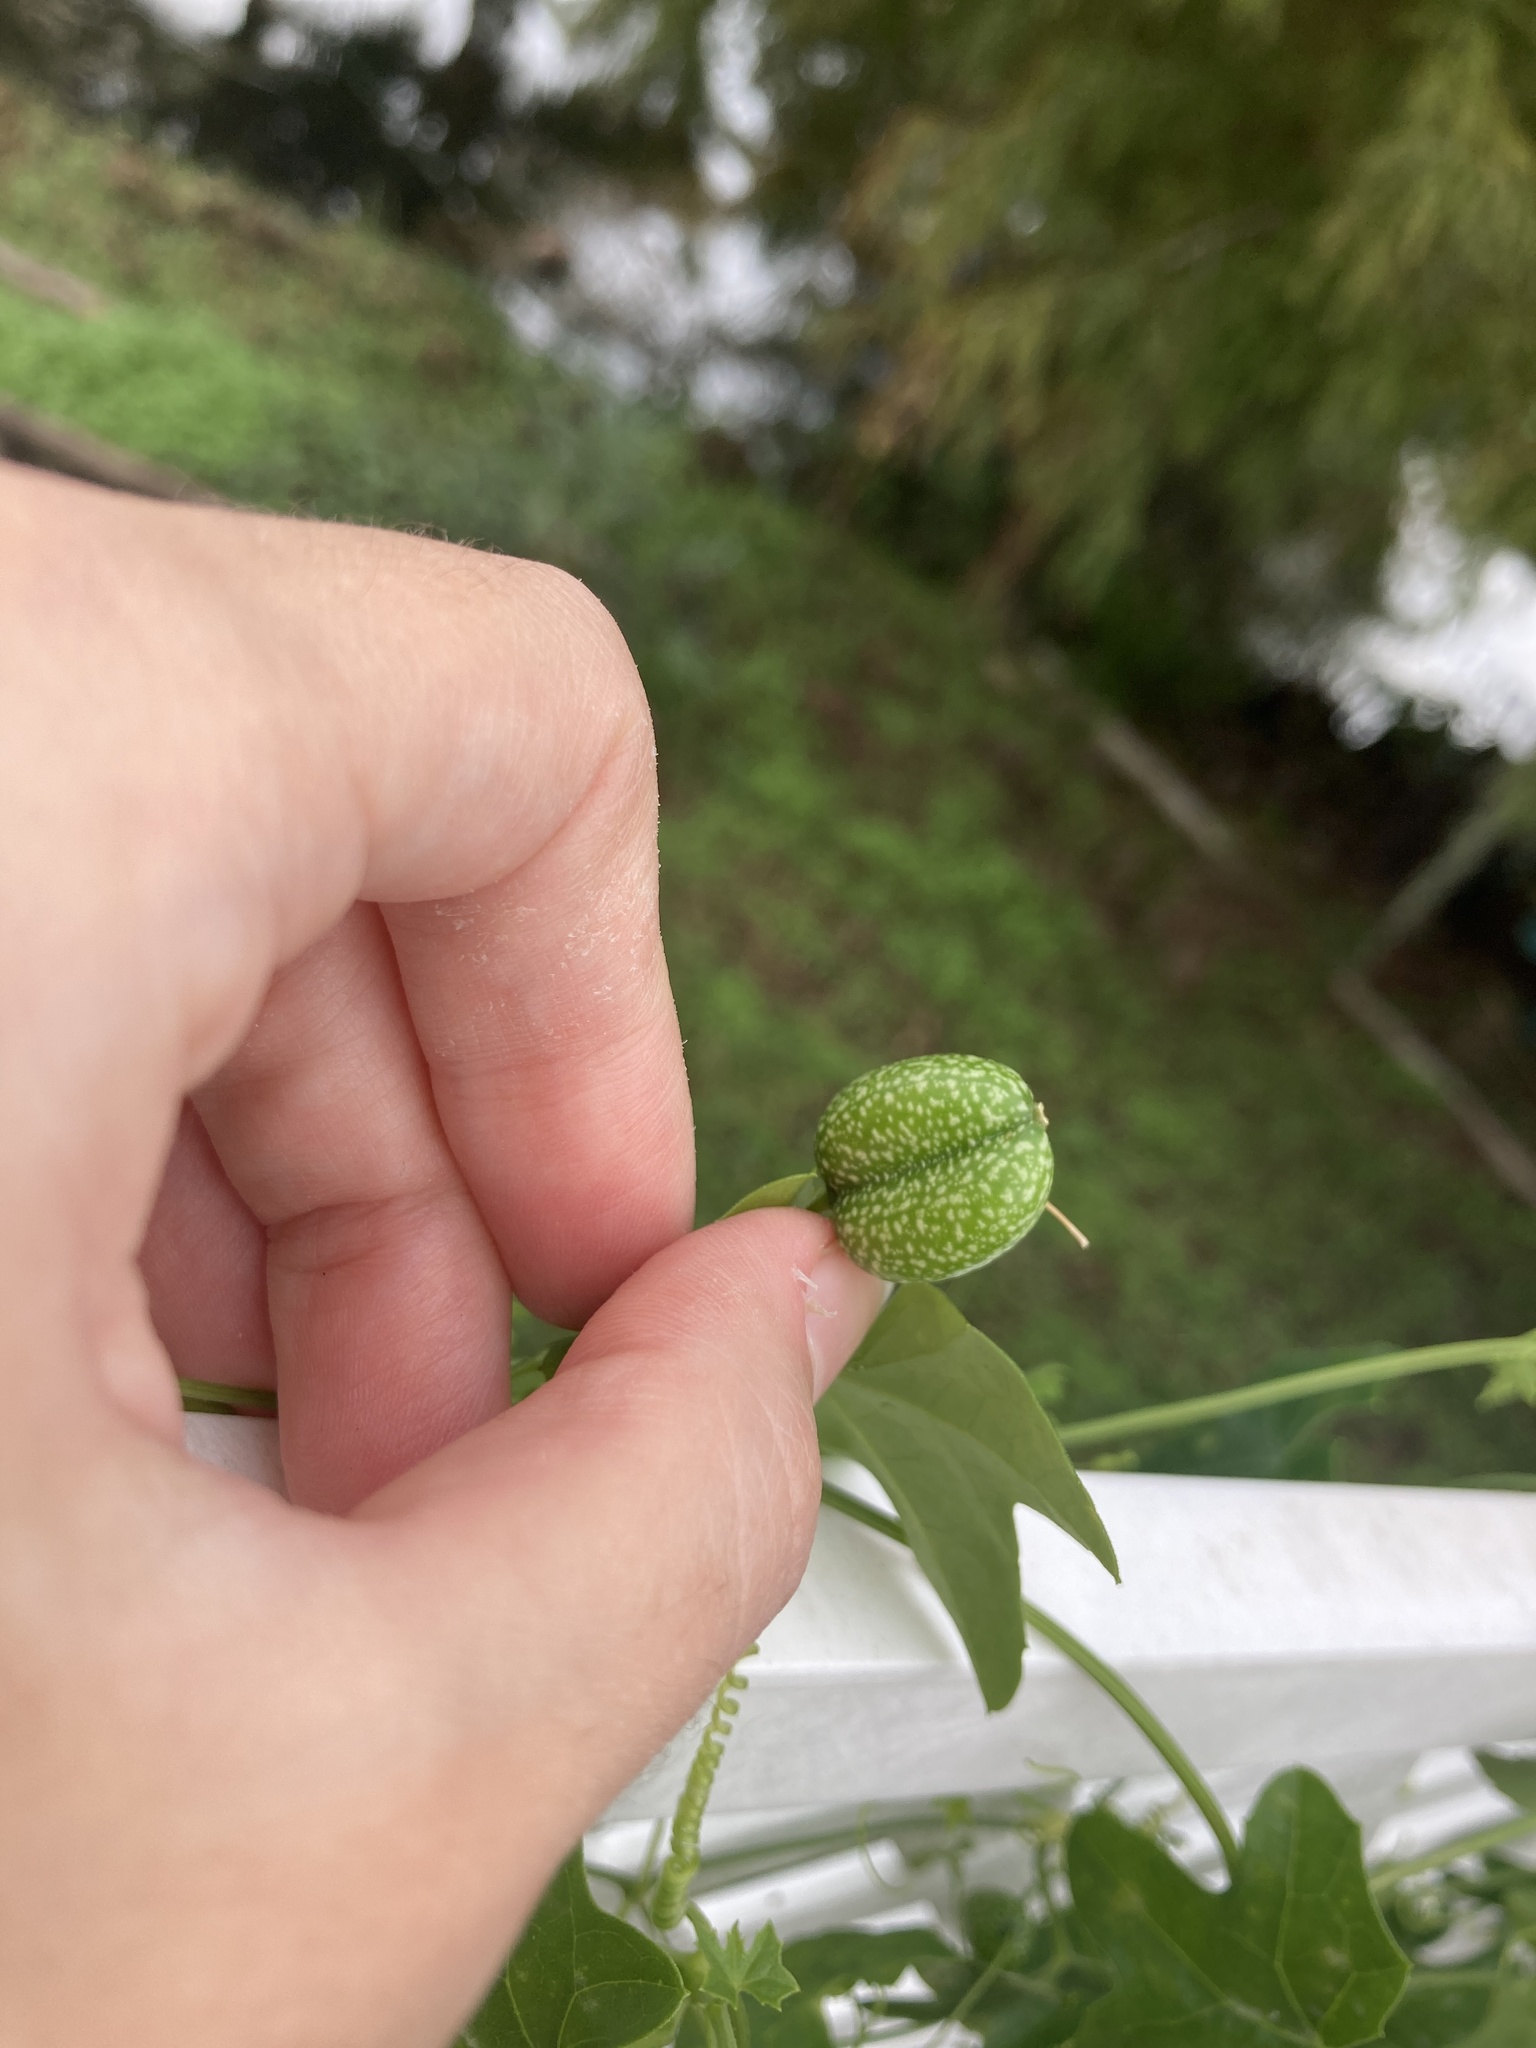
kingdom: Plantae
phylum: Tracheophyta
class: Magnoliopsida
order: Cucurbitales
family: Cucurbitaceae
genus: Melothria
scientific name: Melothria pendula
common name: Creeping-cucumber
